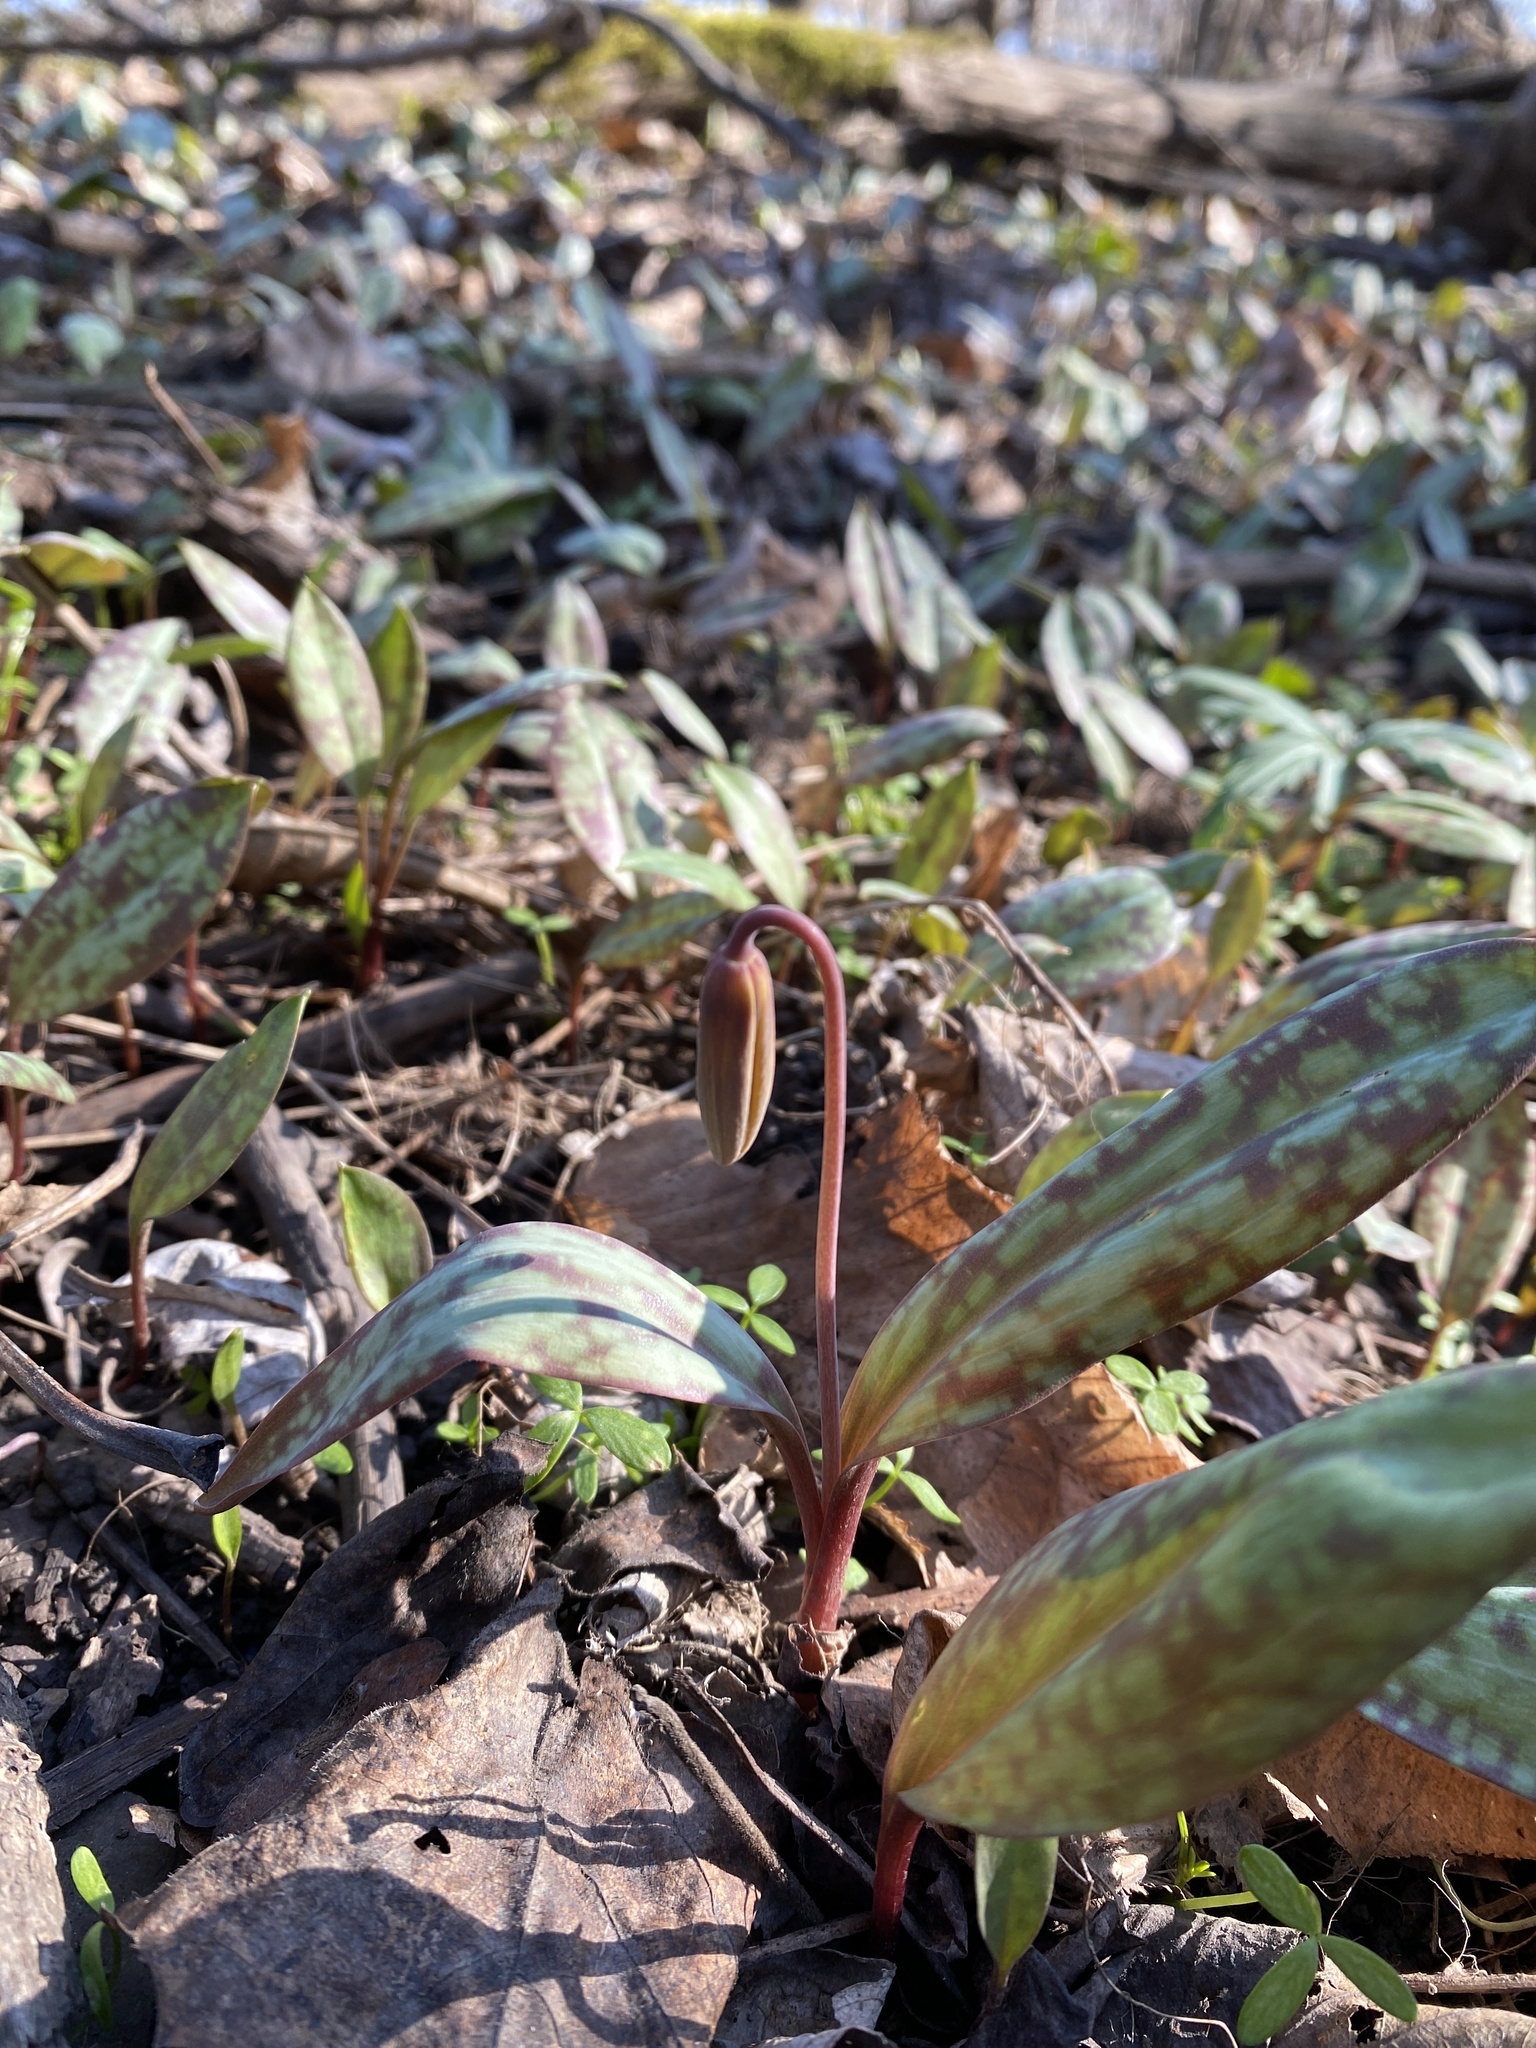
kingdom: Plantae
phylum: Tracheophyta
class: Liliopsida
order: Liliales
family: Liliaceae
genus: Erythronium
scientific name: Erythronium americanum
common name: Yellow adder's-tongue
